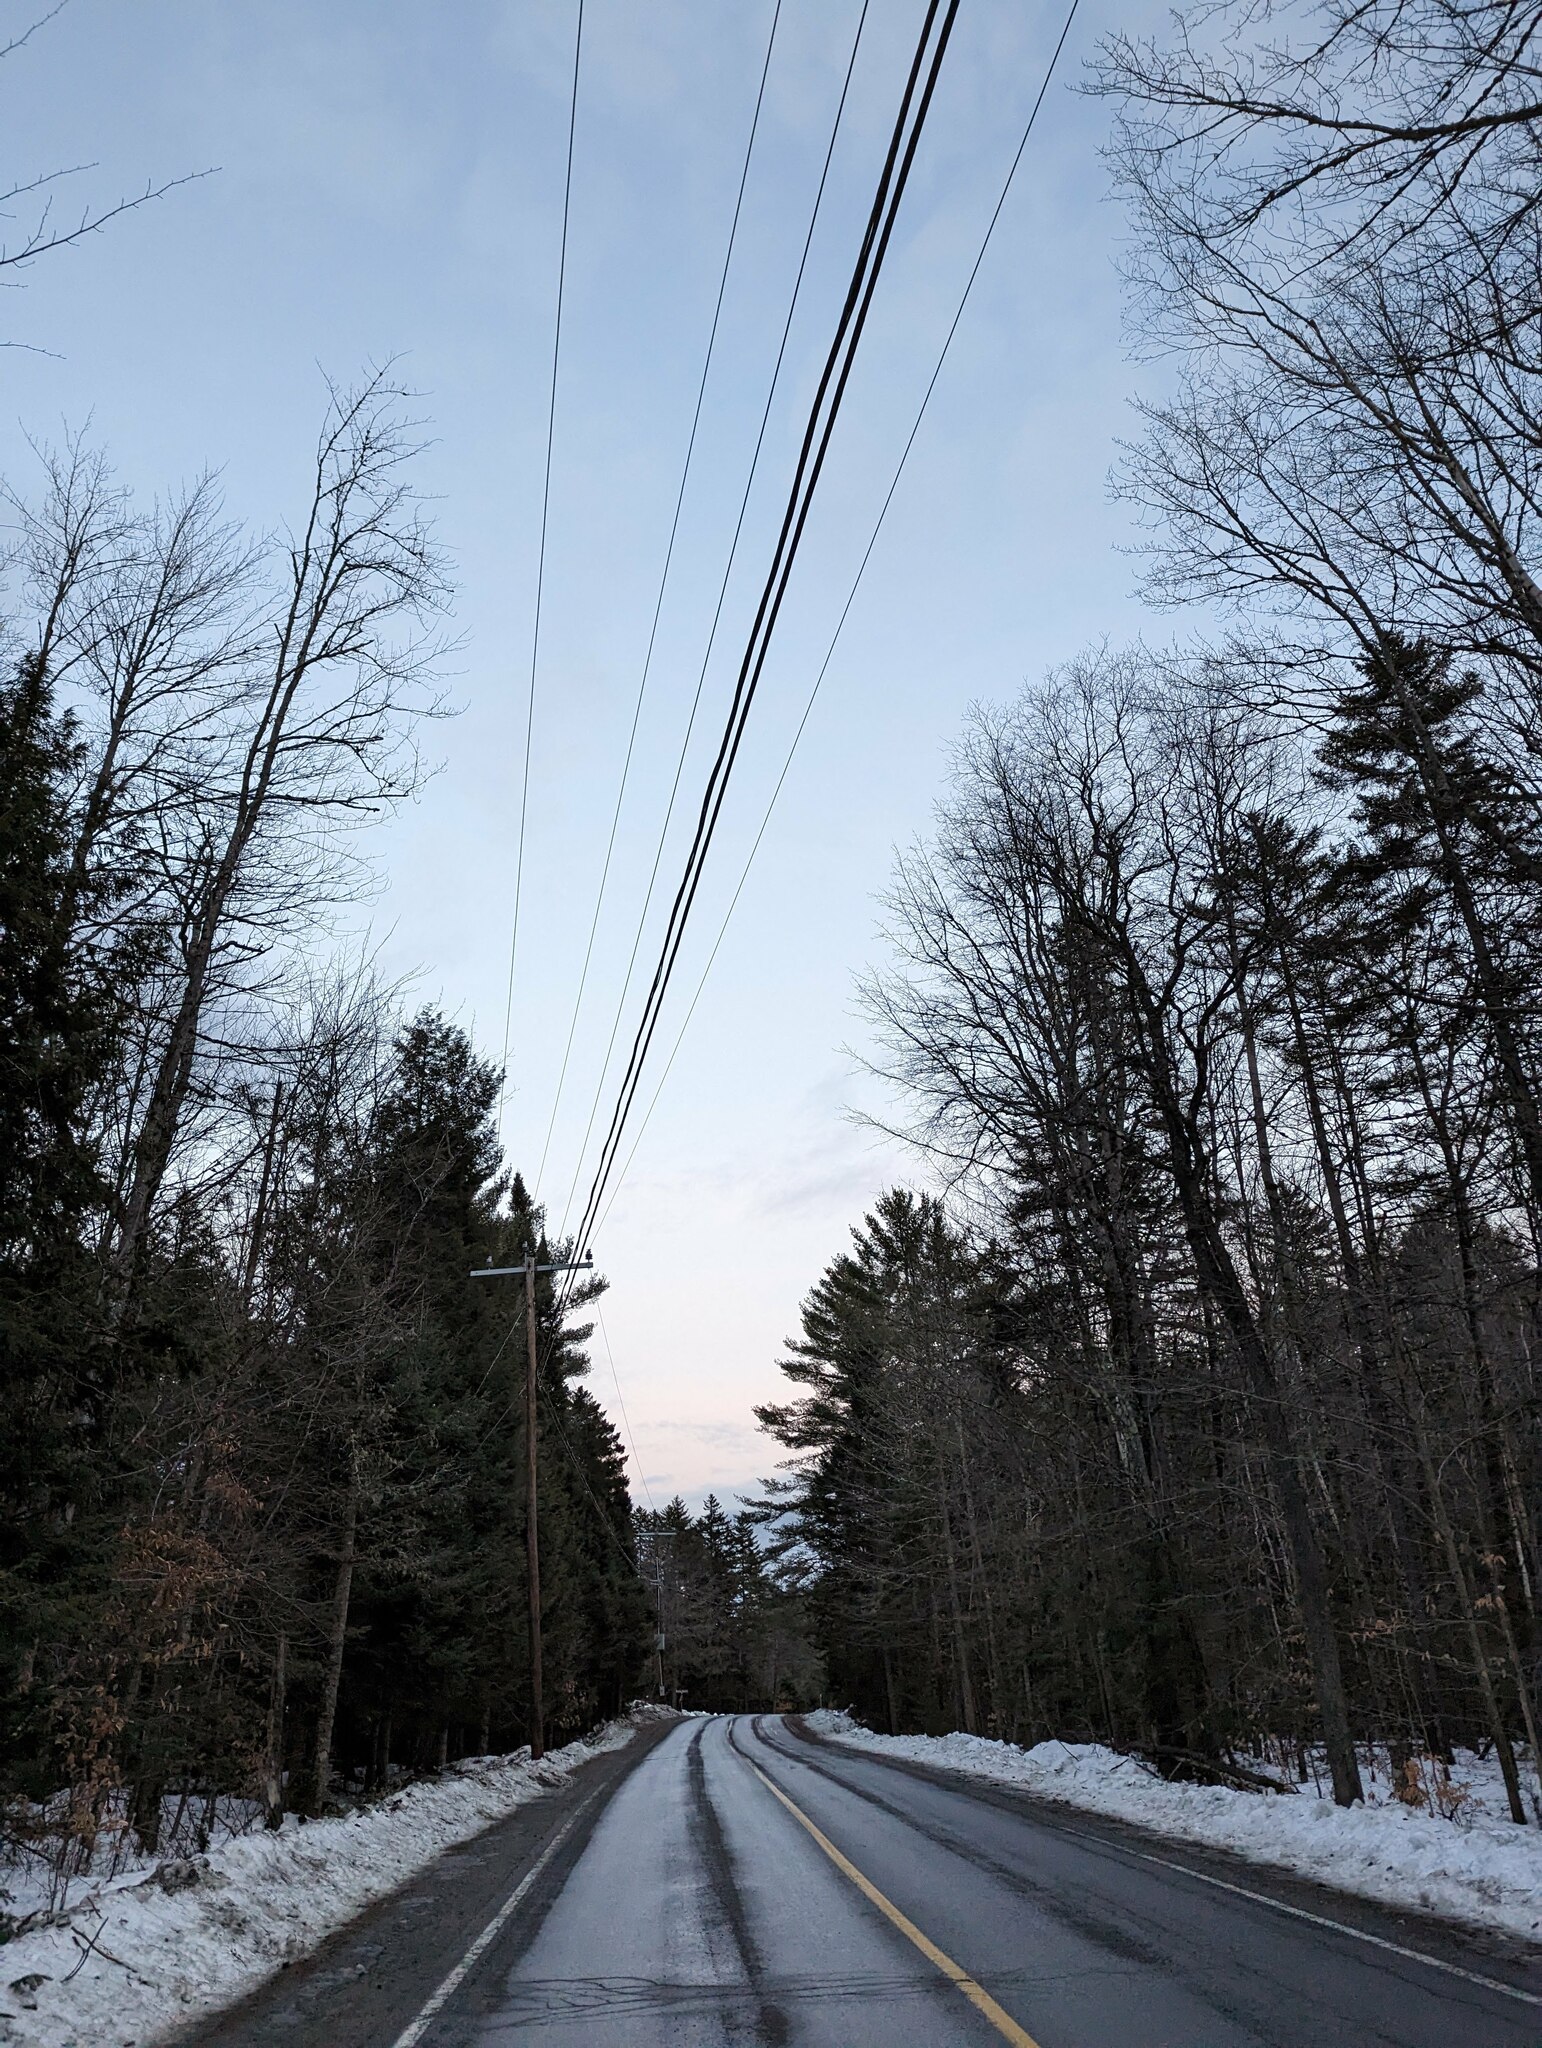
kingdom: Plantae
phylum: Tracheophyta
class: Pinopsida
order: Pinales
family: Pinaceae
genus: Pinus
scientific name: Pinus strobus
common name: Weymouth pine
